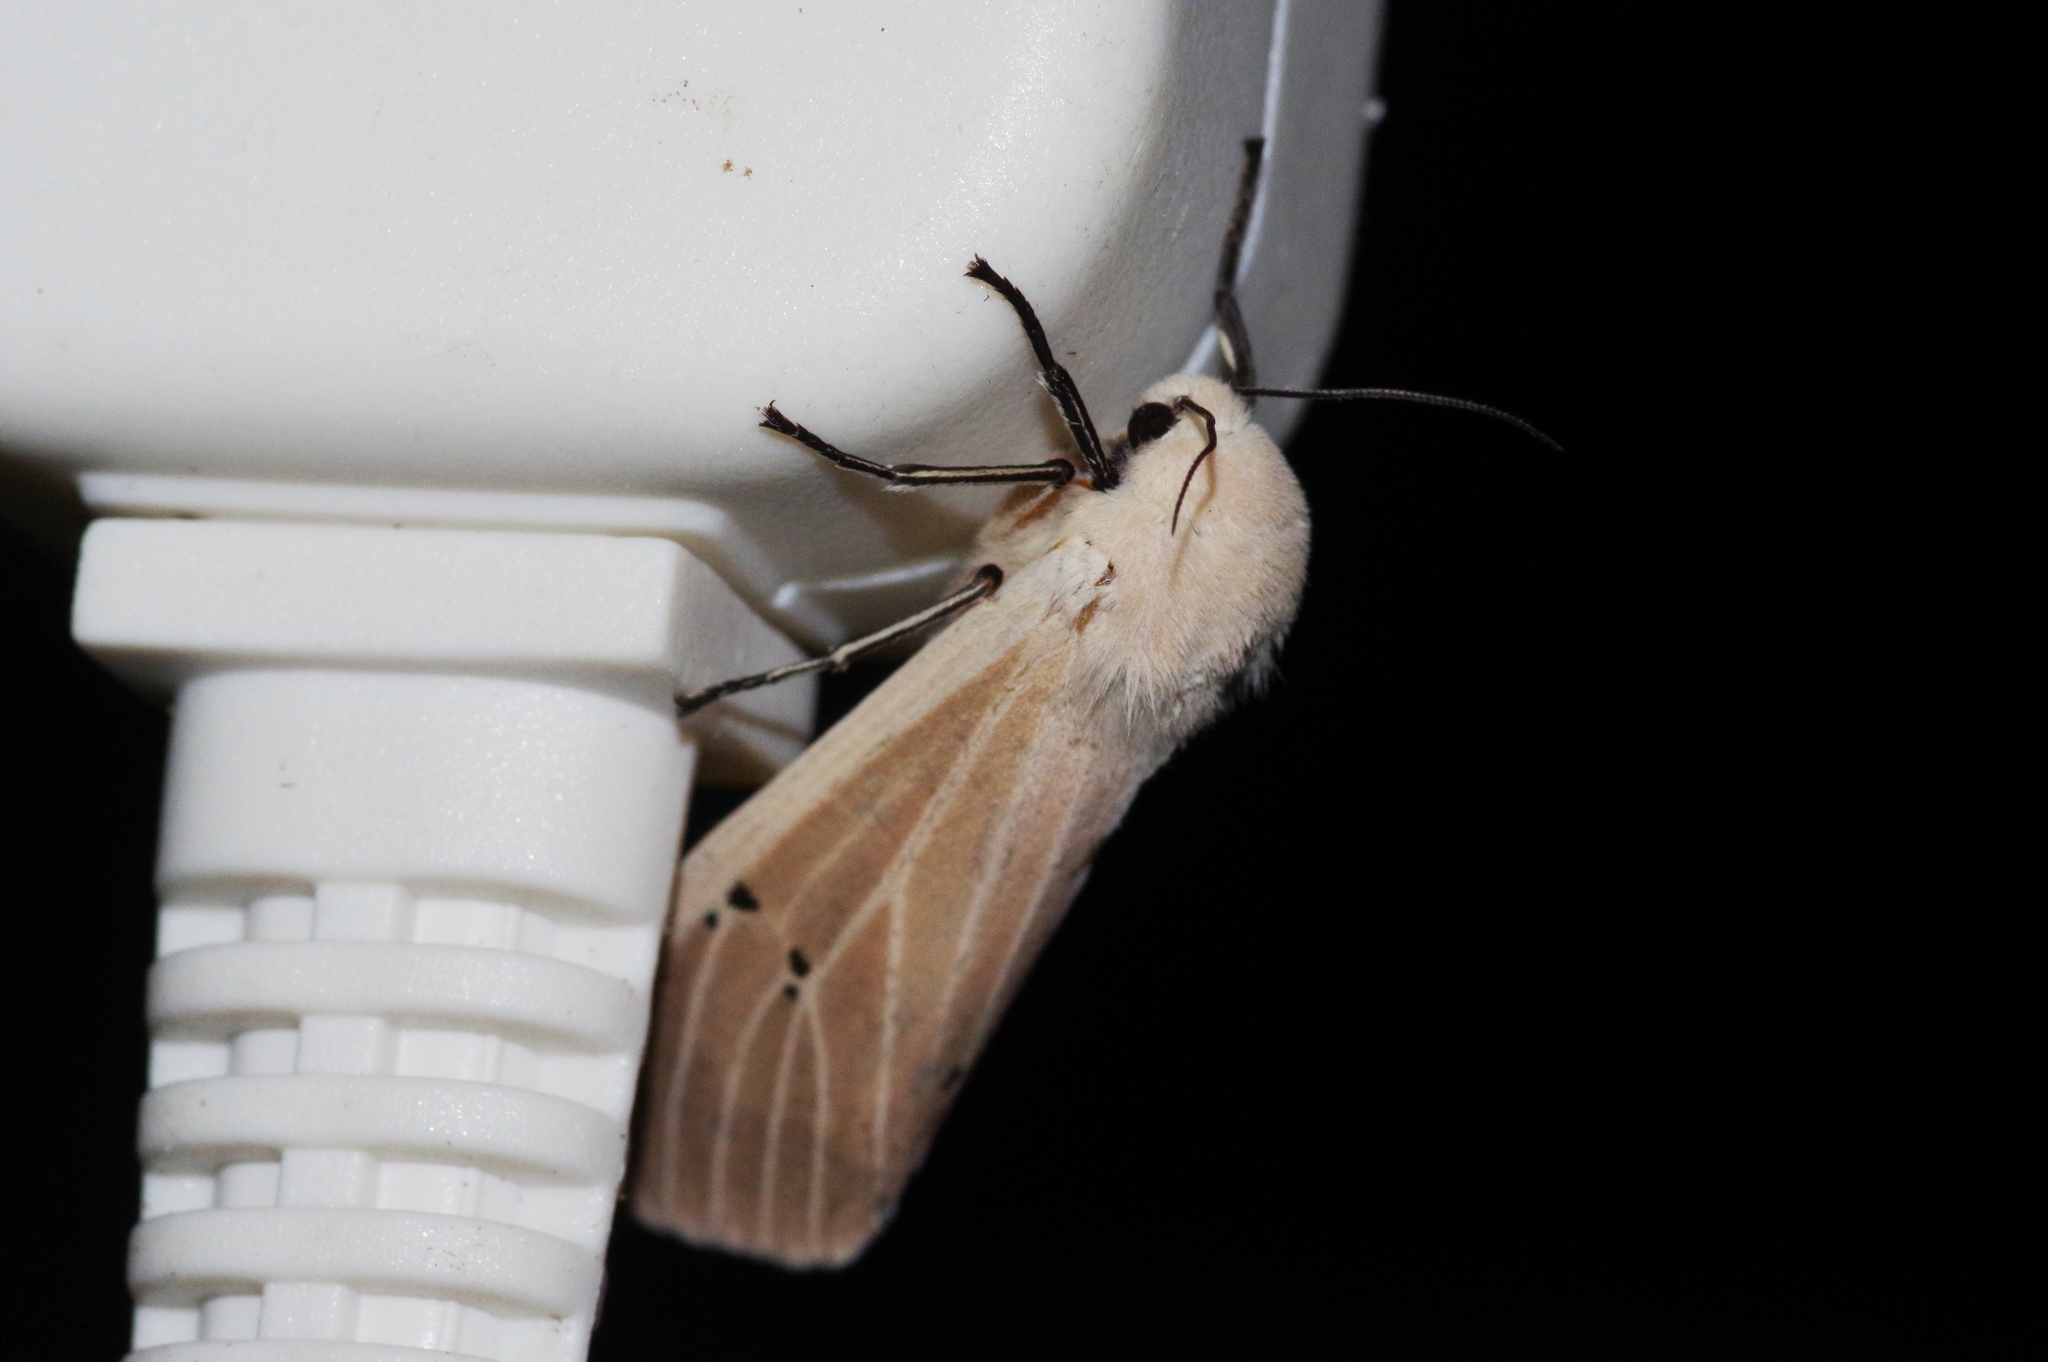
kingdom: Animalia
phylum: Arthropoda
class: Insecta
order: Lepidoptera
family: Erebidae
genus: Creatonotos
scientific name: Creatonotos transiens
